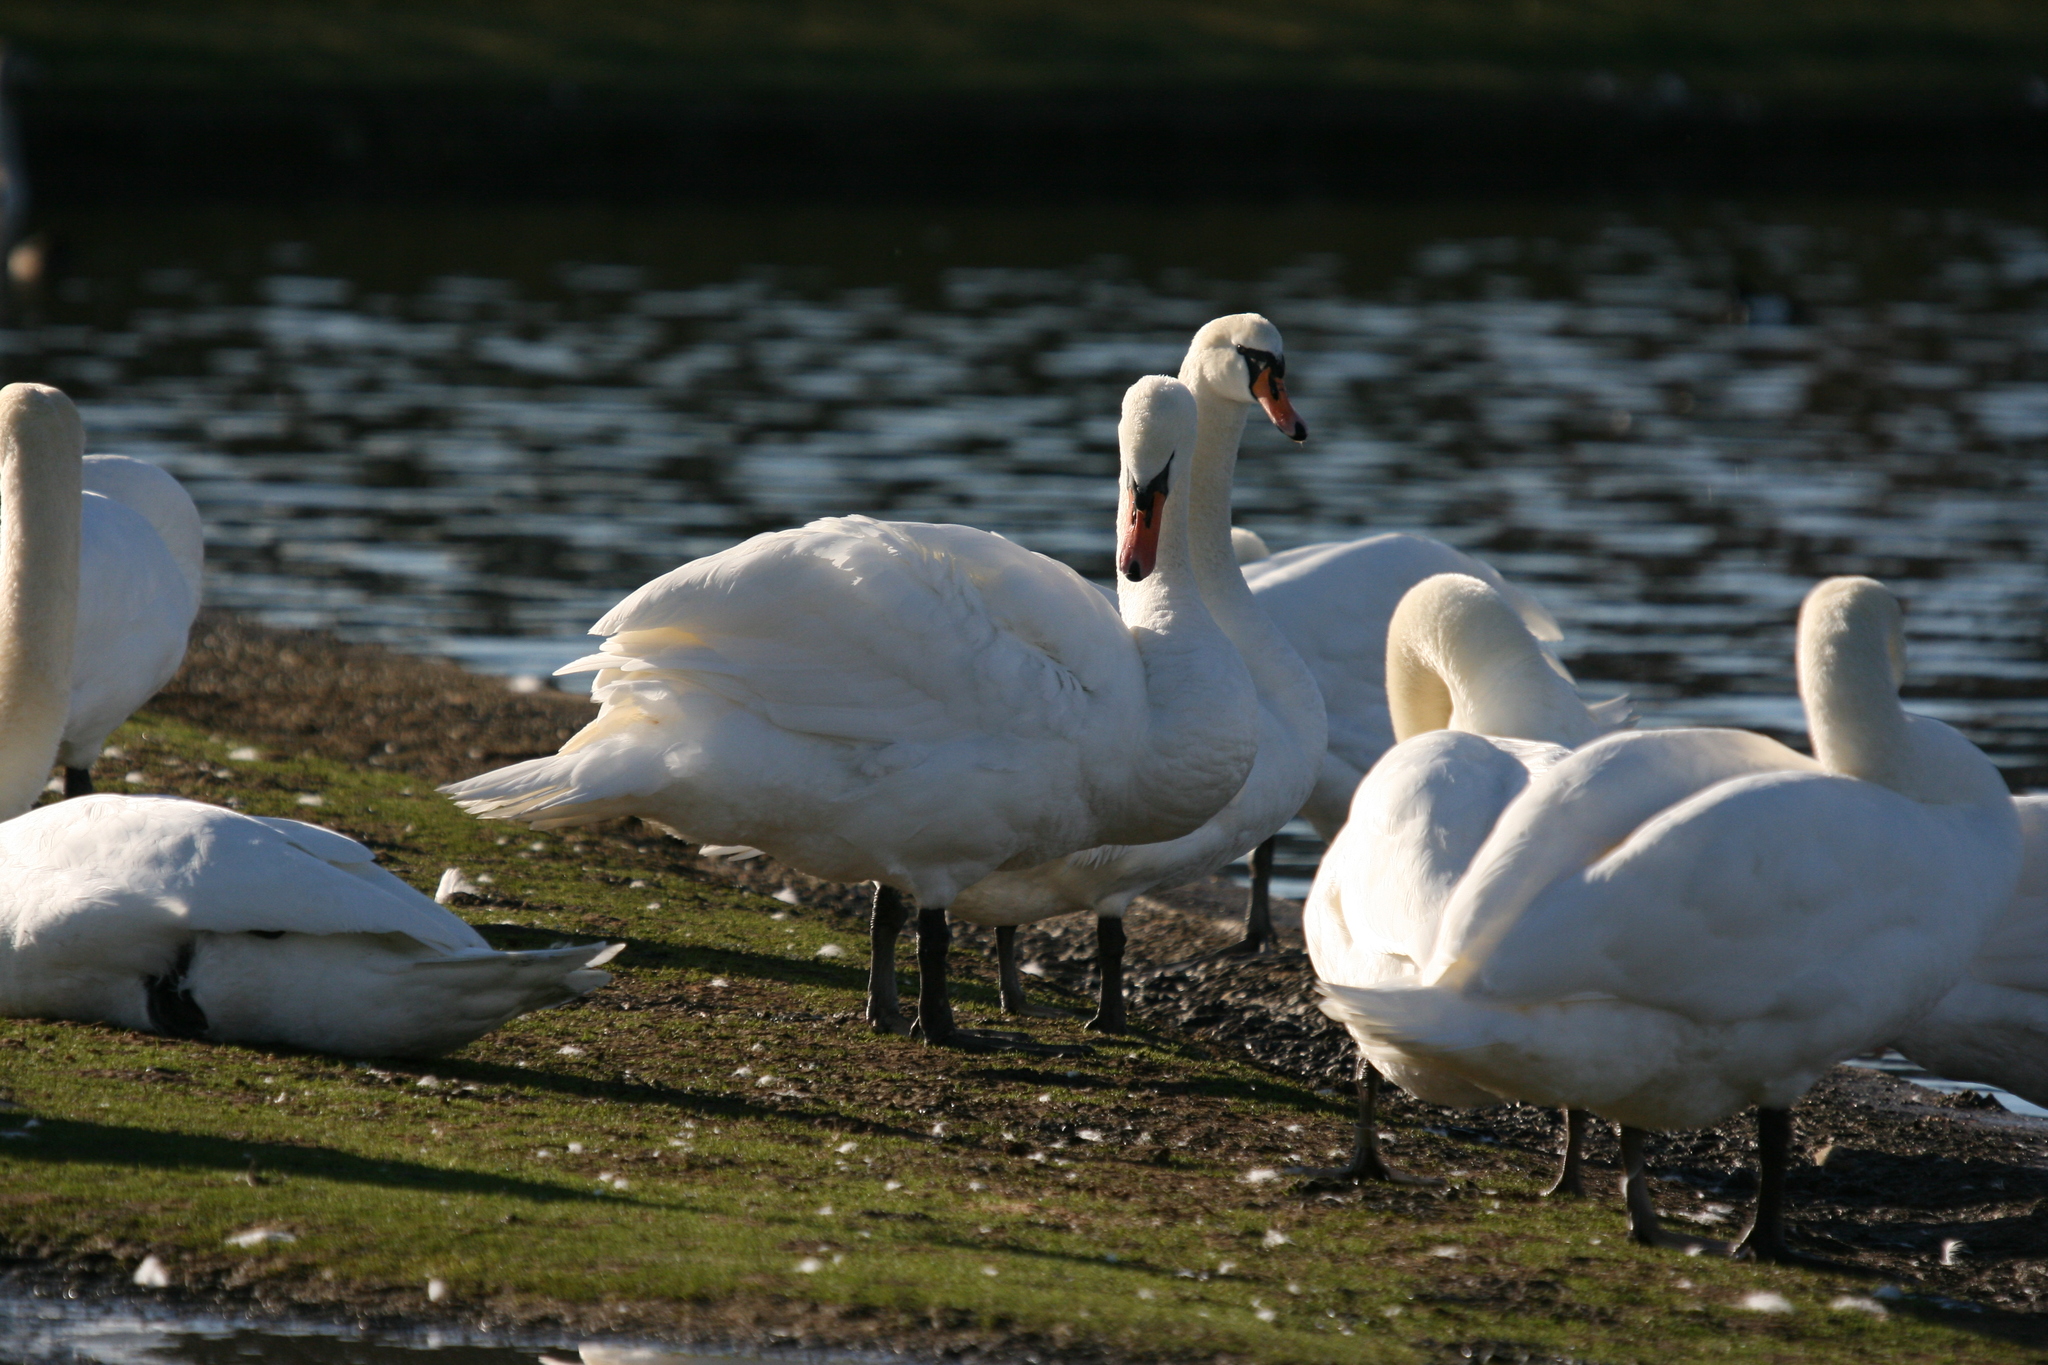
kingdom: Animalia
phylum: Chordata
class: Aves
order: Anseriformes
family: Anatidae
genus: Cygnus
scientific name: Cygnus olor
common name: Mute swan
